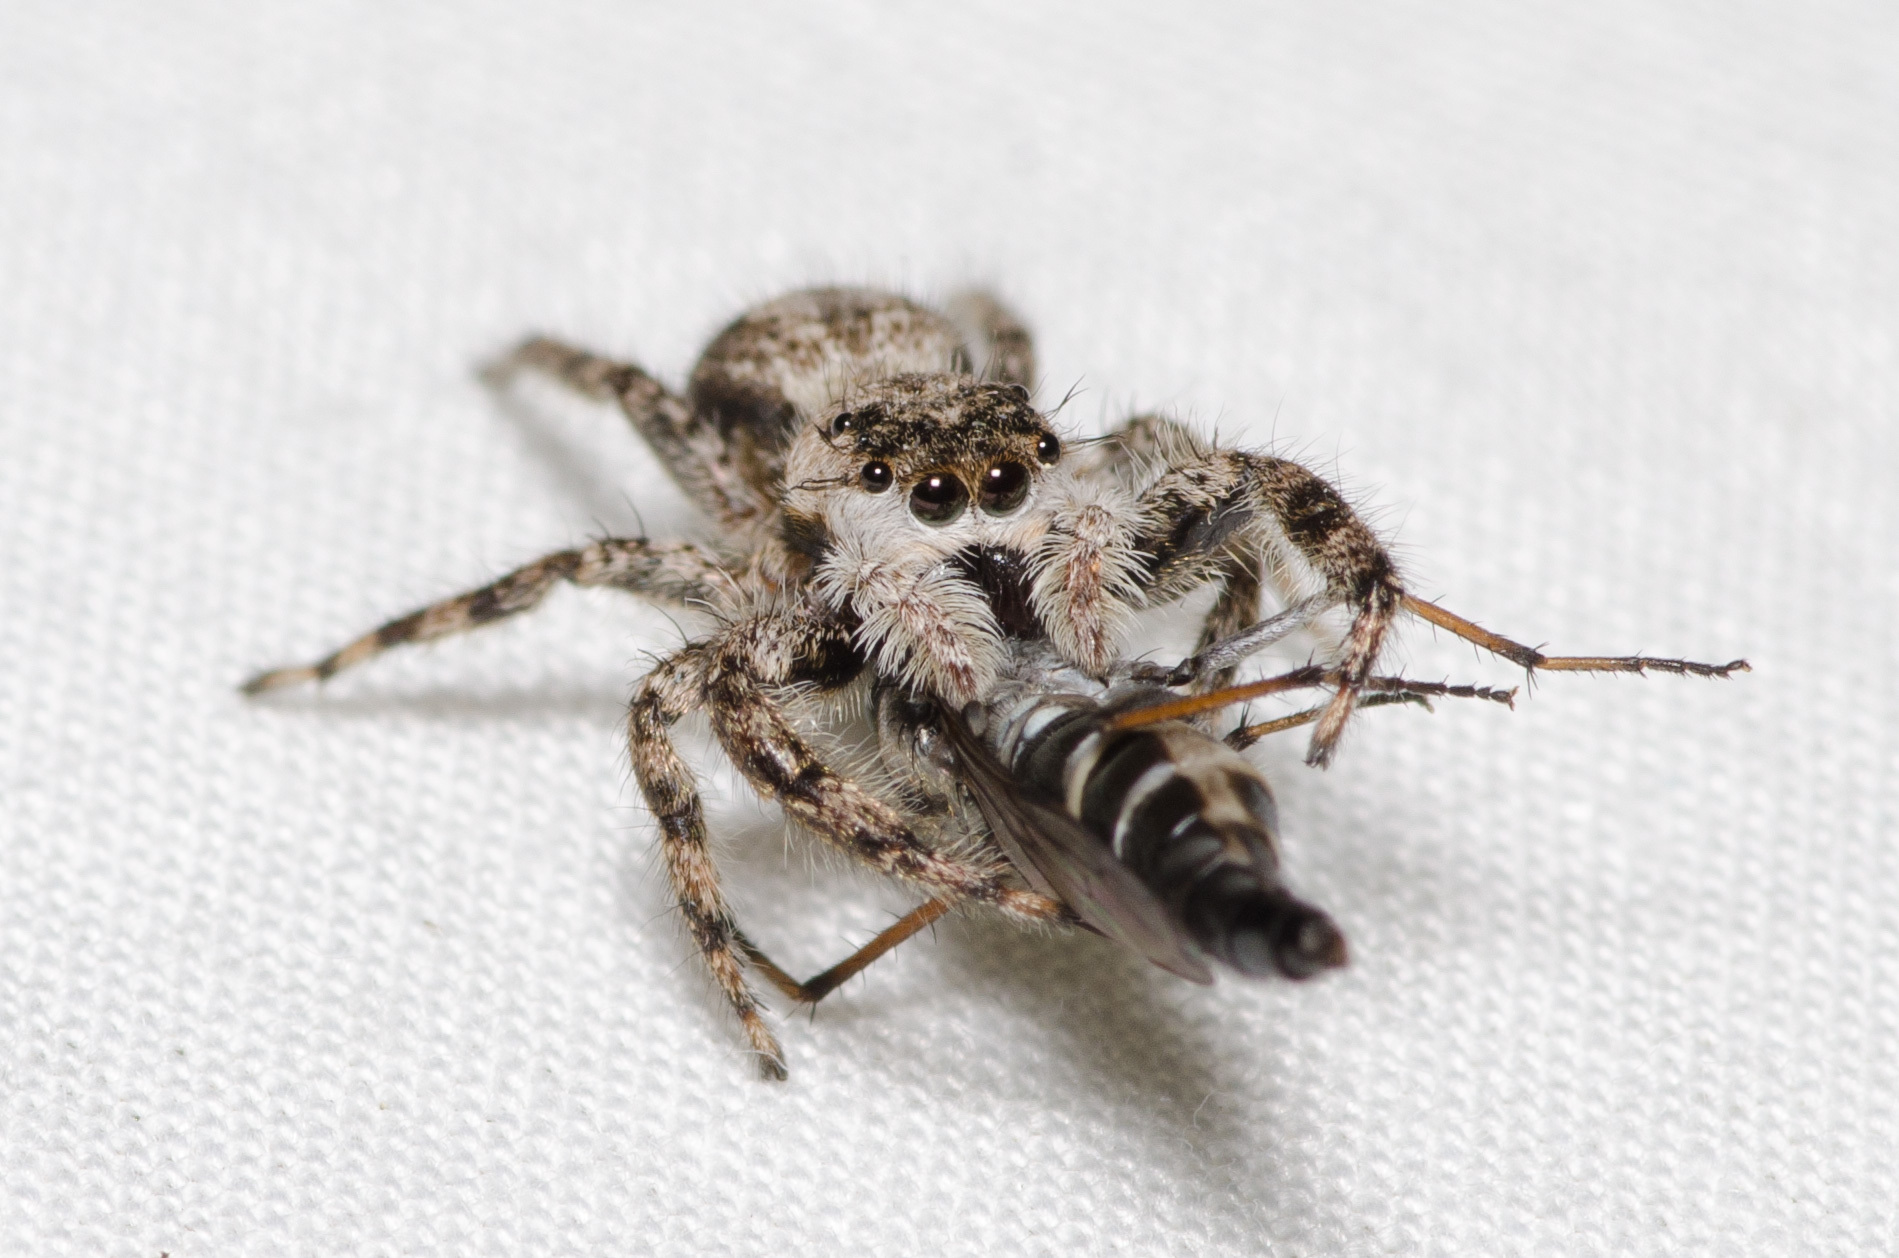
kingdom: Animalia
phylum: Arthropoda
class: Arachnida
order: Araneae
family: Salticidae
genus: Platycryptus
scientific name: Platycryptus undatus
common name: Tan jumping spider
